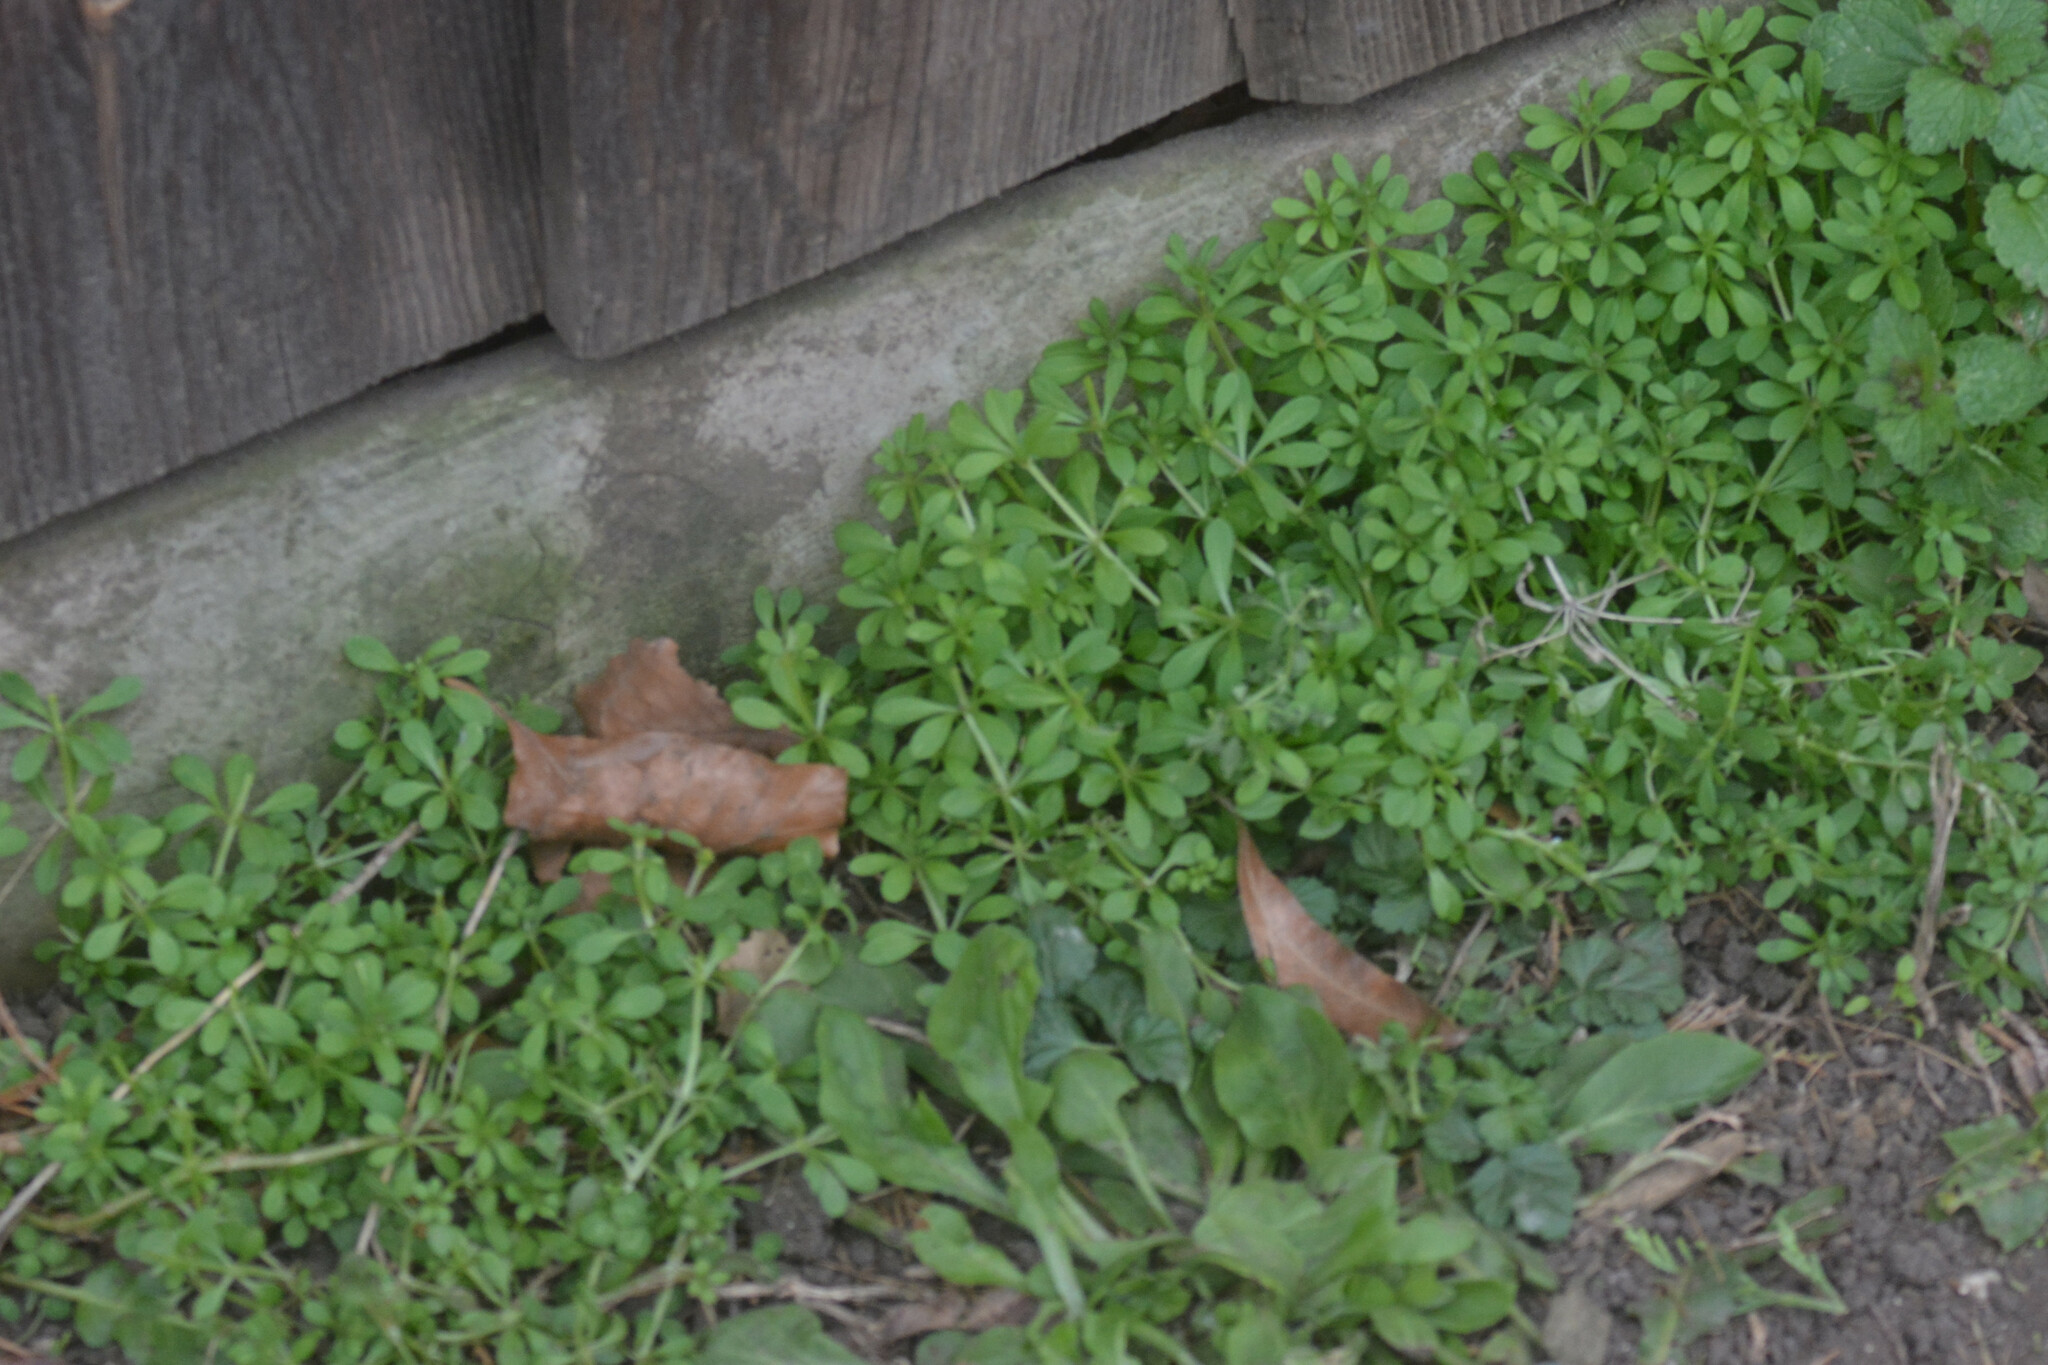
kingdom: Plantae
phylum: Tracheophyta
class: Magnoliopsida
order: Gentianales
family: Rubiaceae
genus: Galium
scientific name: Galium aparine
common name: Cleavers
